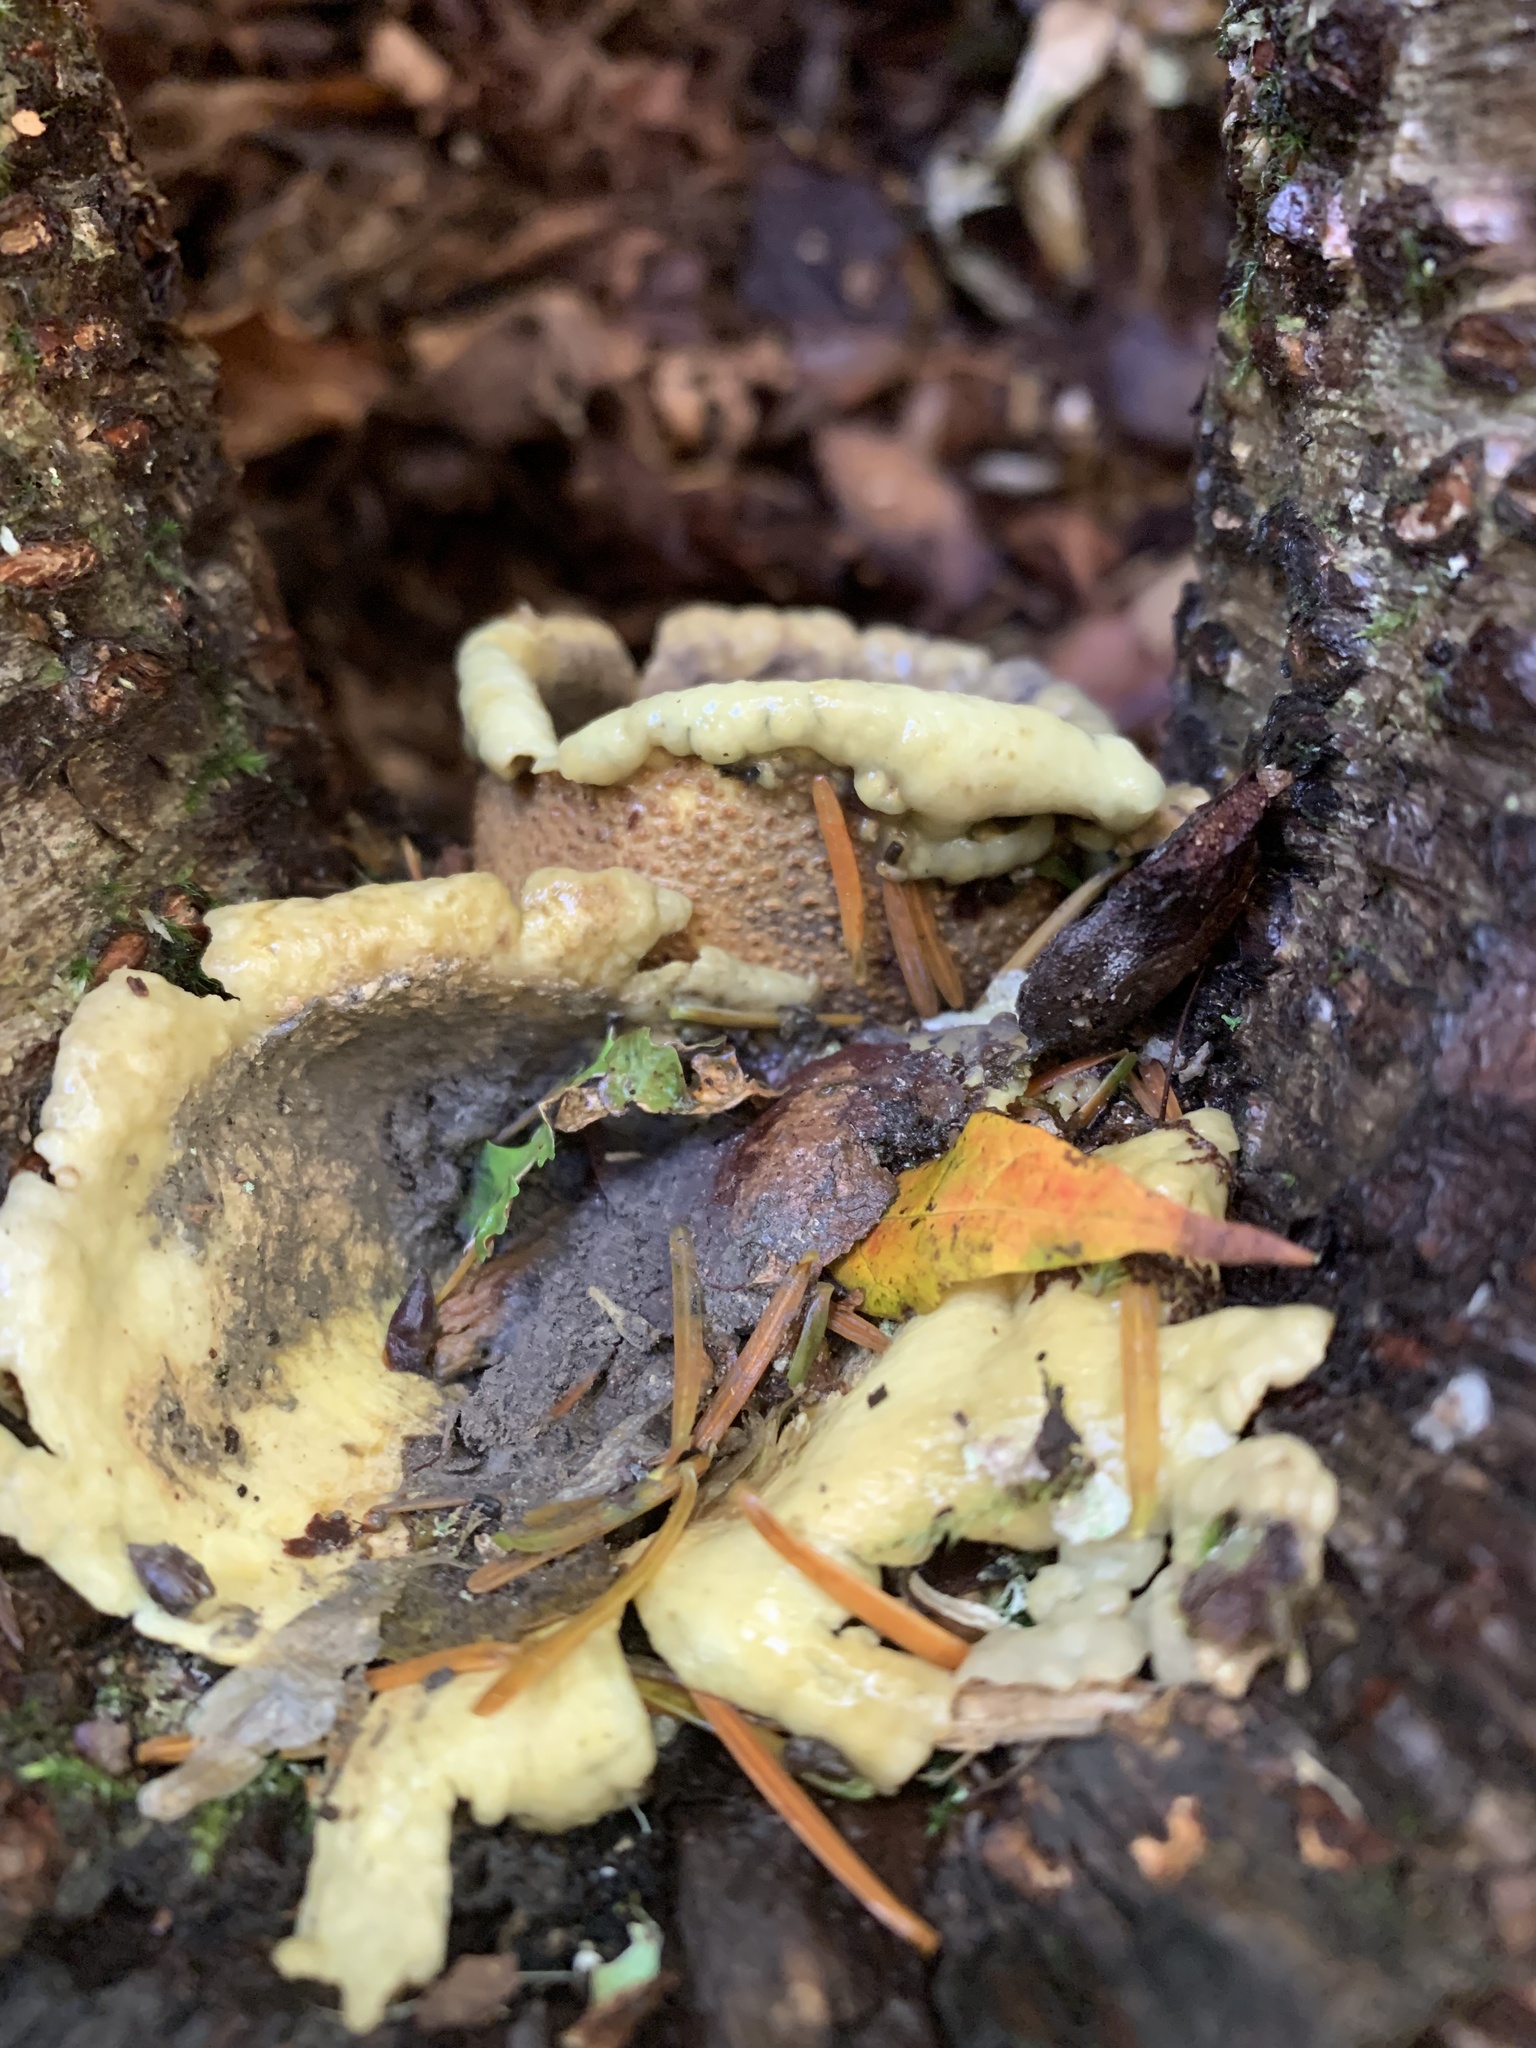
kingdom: Fungi
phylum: Basidiomycota
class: Agaricomycetes
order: Boletales
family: Sclerodermataceae
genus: Scleroderma
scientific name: Scleroderma citrinum
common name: Common earthball
